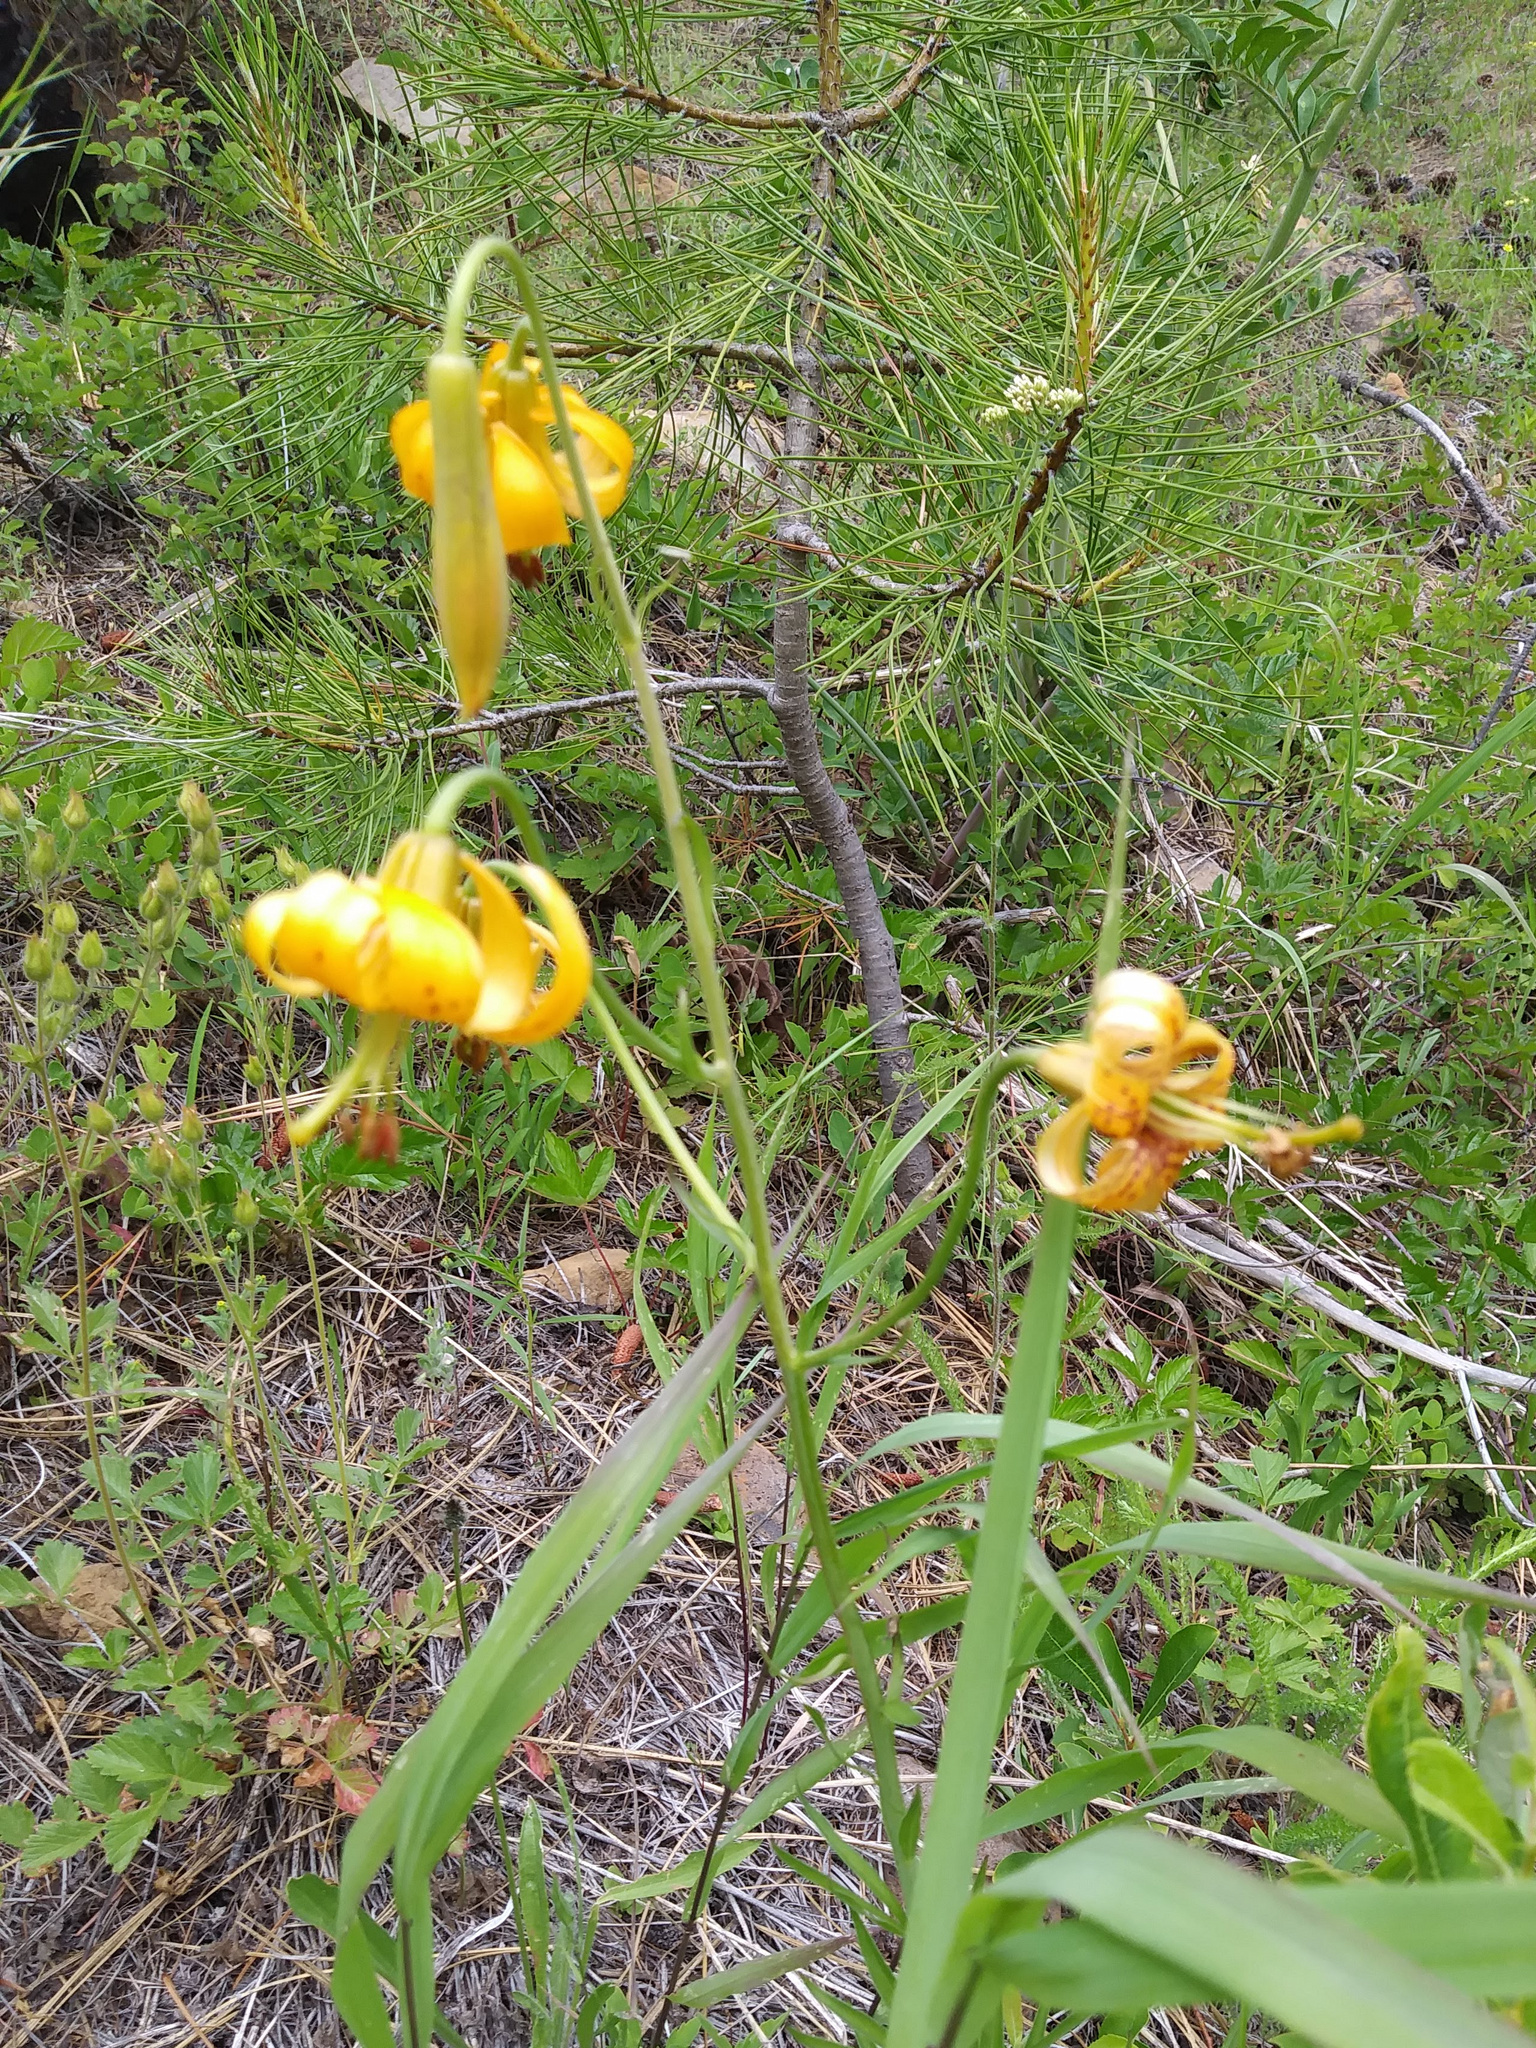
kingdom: Plantae
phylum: Tracheophyta
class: Liliopsida
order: Liliales
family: Liliaceae
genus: Lilium
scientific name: Lilium columbianum
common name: Columbia lily
